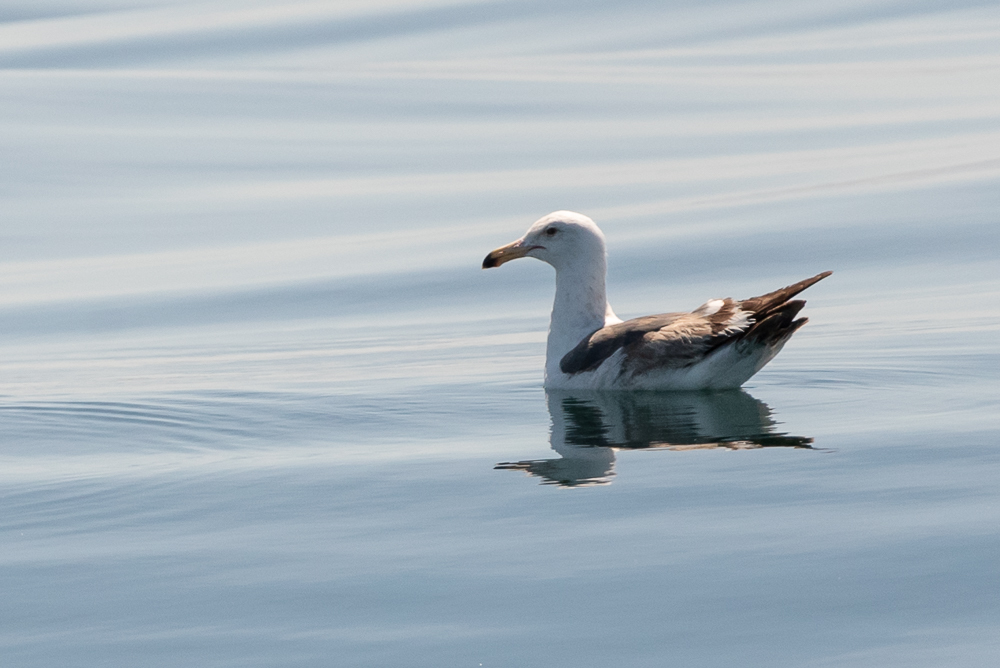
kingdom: Animalia
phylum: Chordata
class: Aves
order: Charadriiformes
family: Laridae
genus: Larus
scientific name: Larus occidentalis
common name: Western gull
